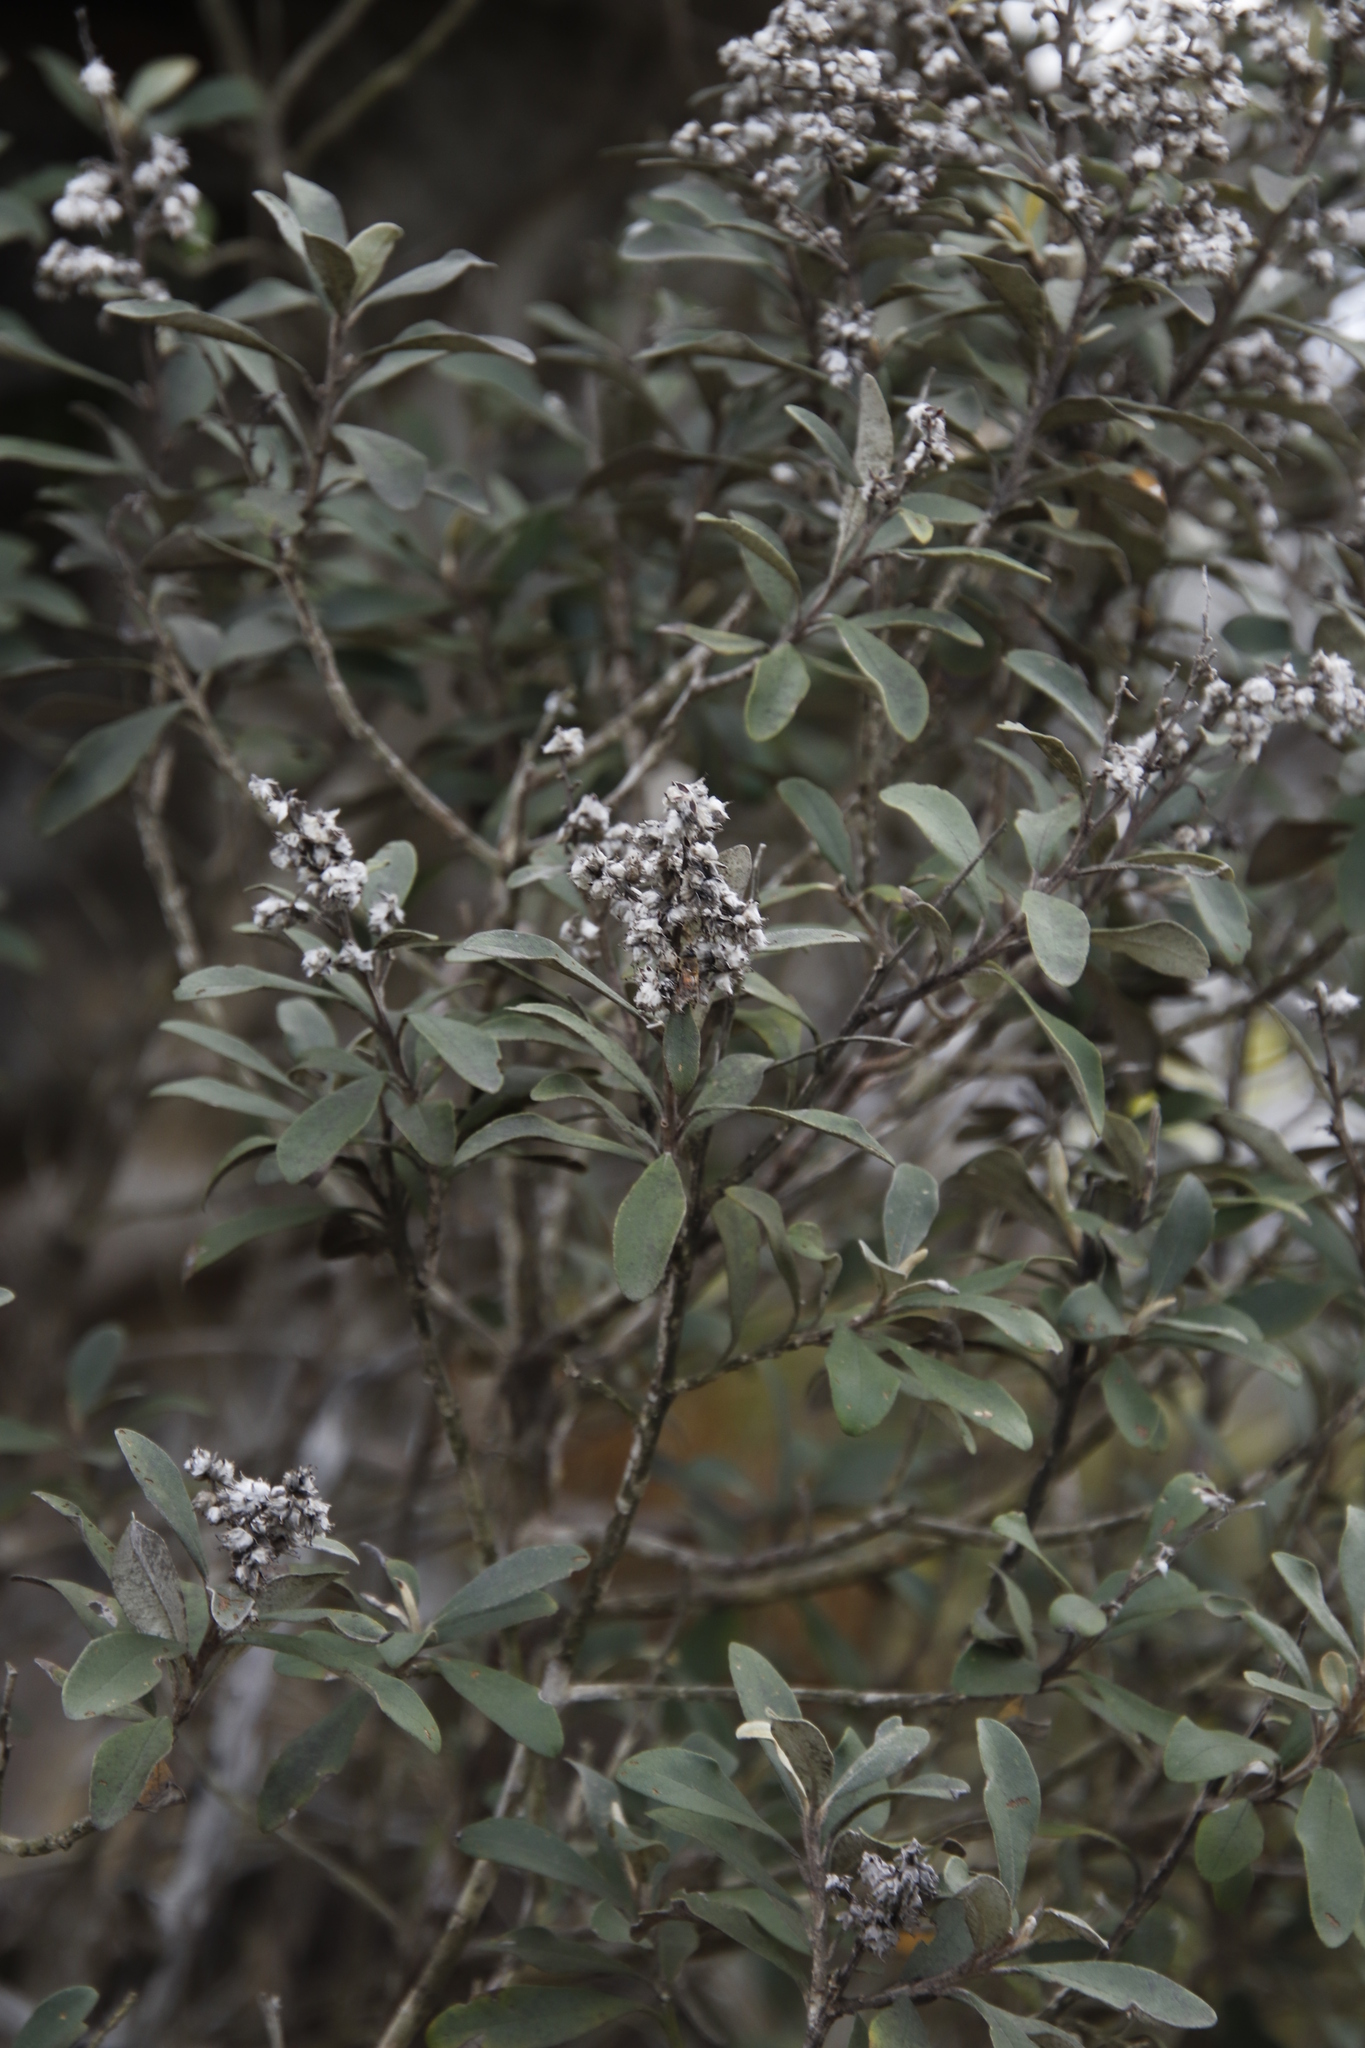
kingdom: Plantae
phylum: Tracheophyta
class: Magnoliopsida
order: Asterales
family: Asteraceae
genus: Tarchonanthus
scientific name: Tarchonanthus littoralis
